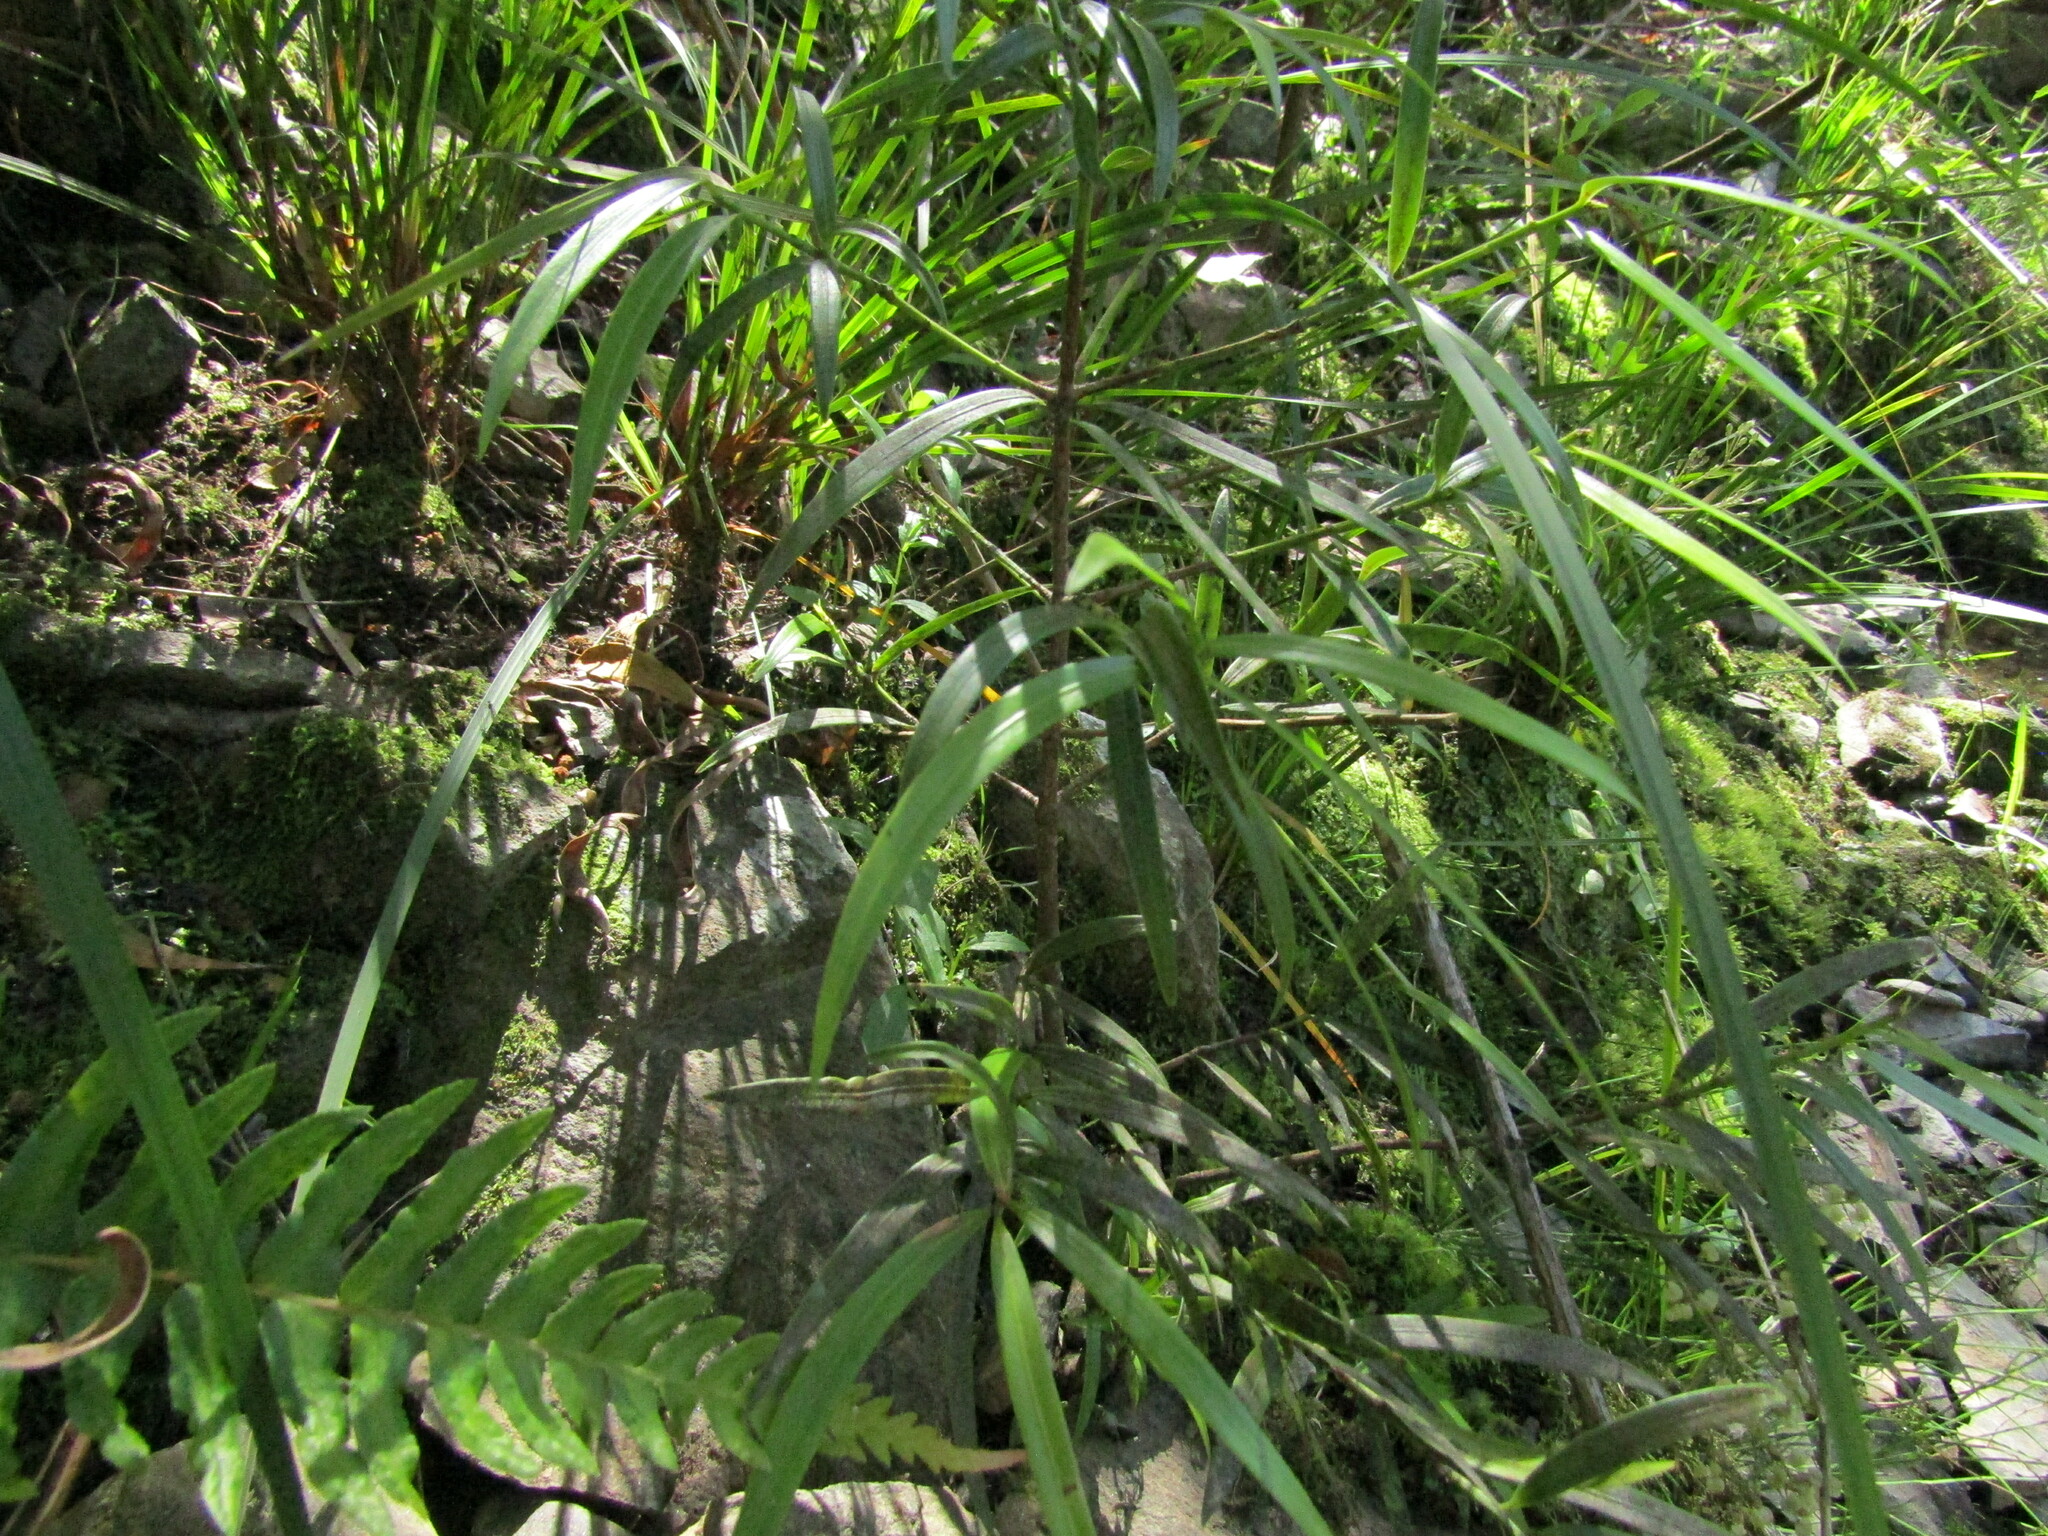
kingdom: Plantae
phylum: Tracheophyta
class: Pinopsida
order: Pinales
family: Podocarpaceae
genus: Podocarpus
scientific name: Podocarpus salignus
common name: Willow-leaf podocarp
